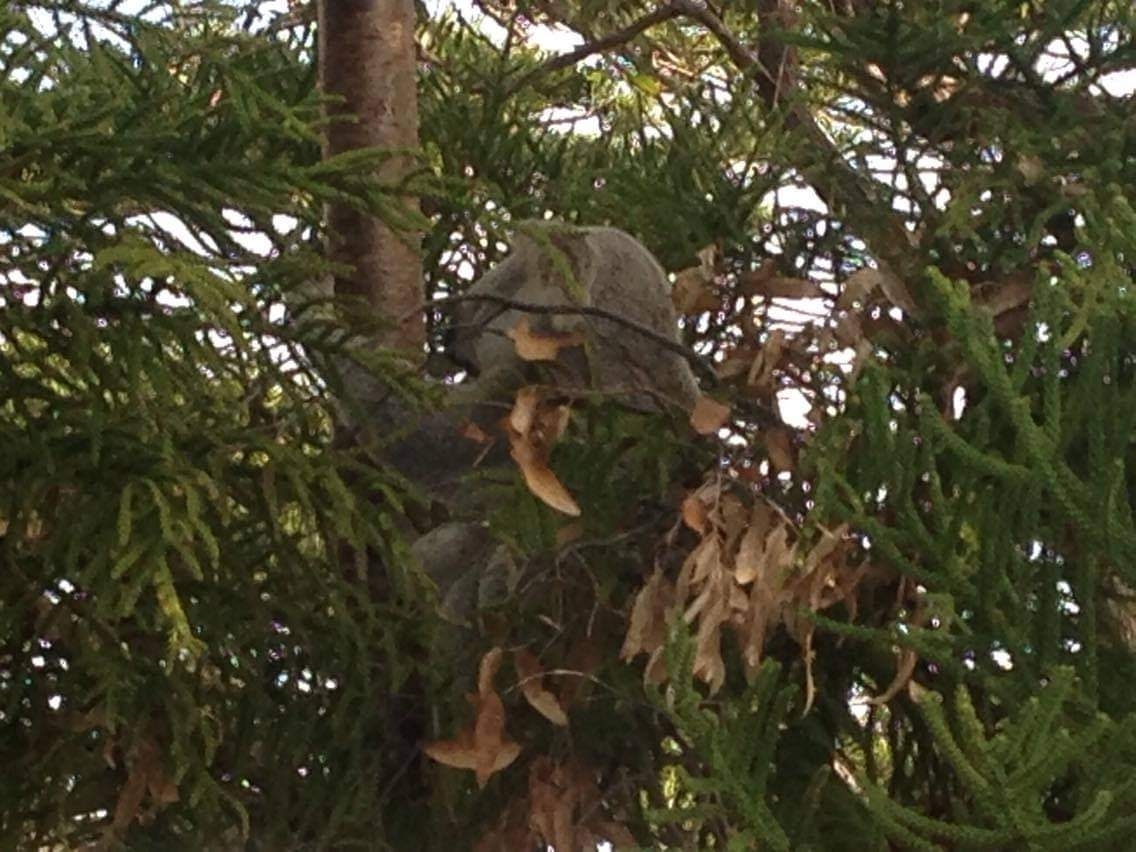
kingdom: Animalia
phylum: Chordata
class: Mammalia
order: Diprotodontia
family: Phascolarctidae
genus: Phascolarctos
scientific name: Phascolarctos cinereus
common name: Koala
